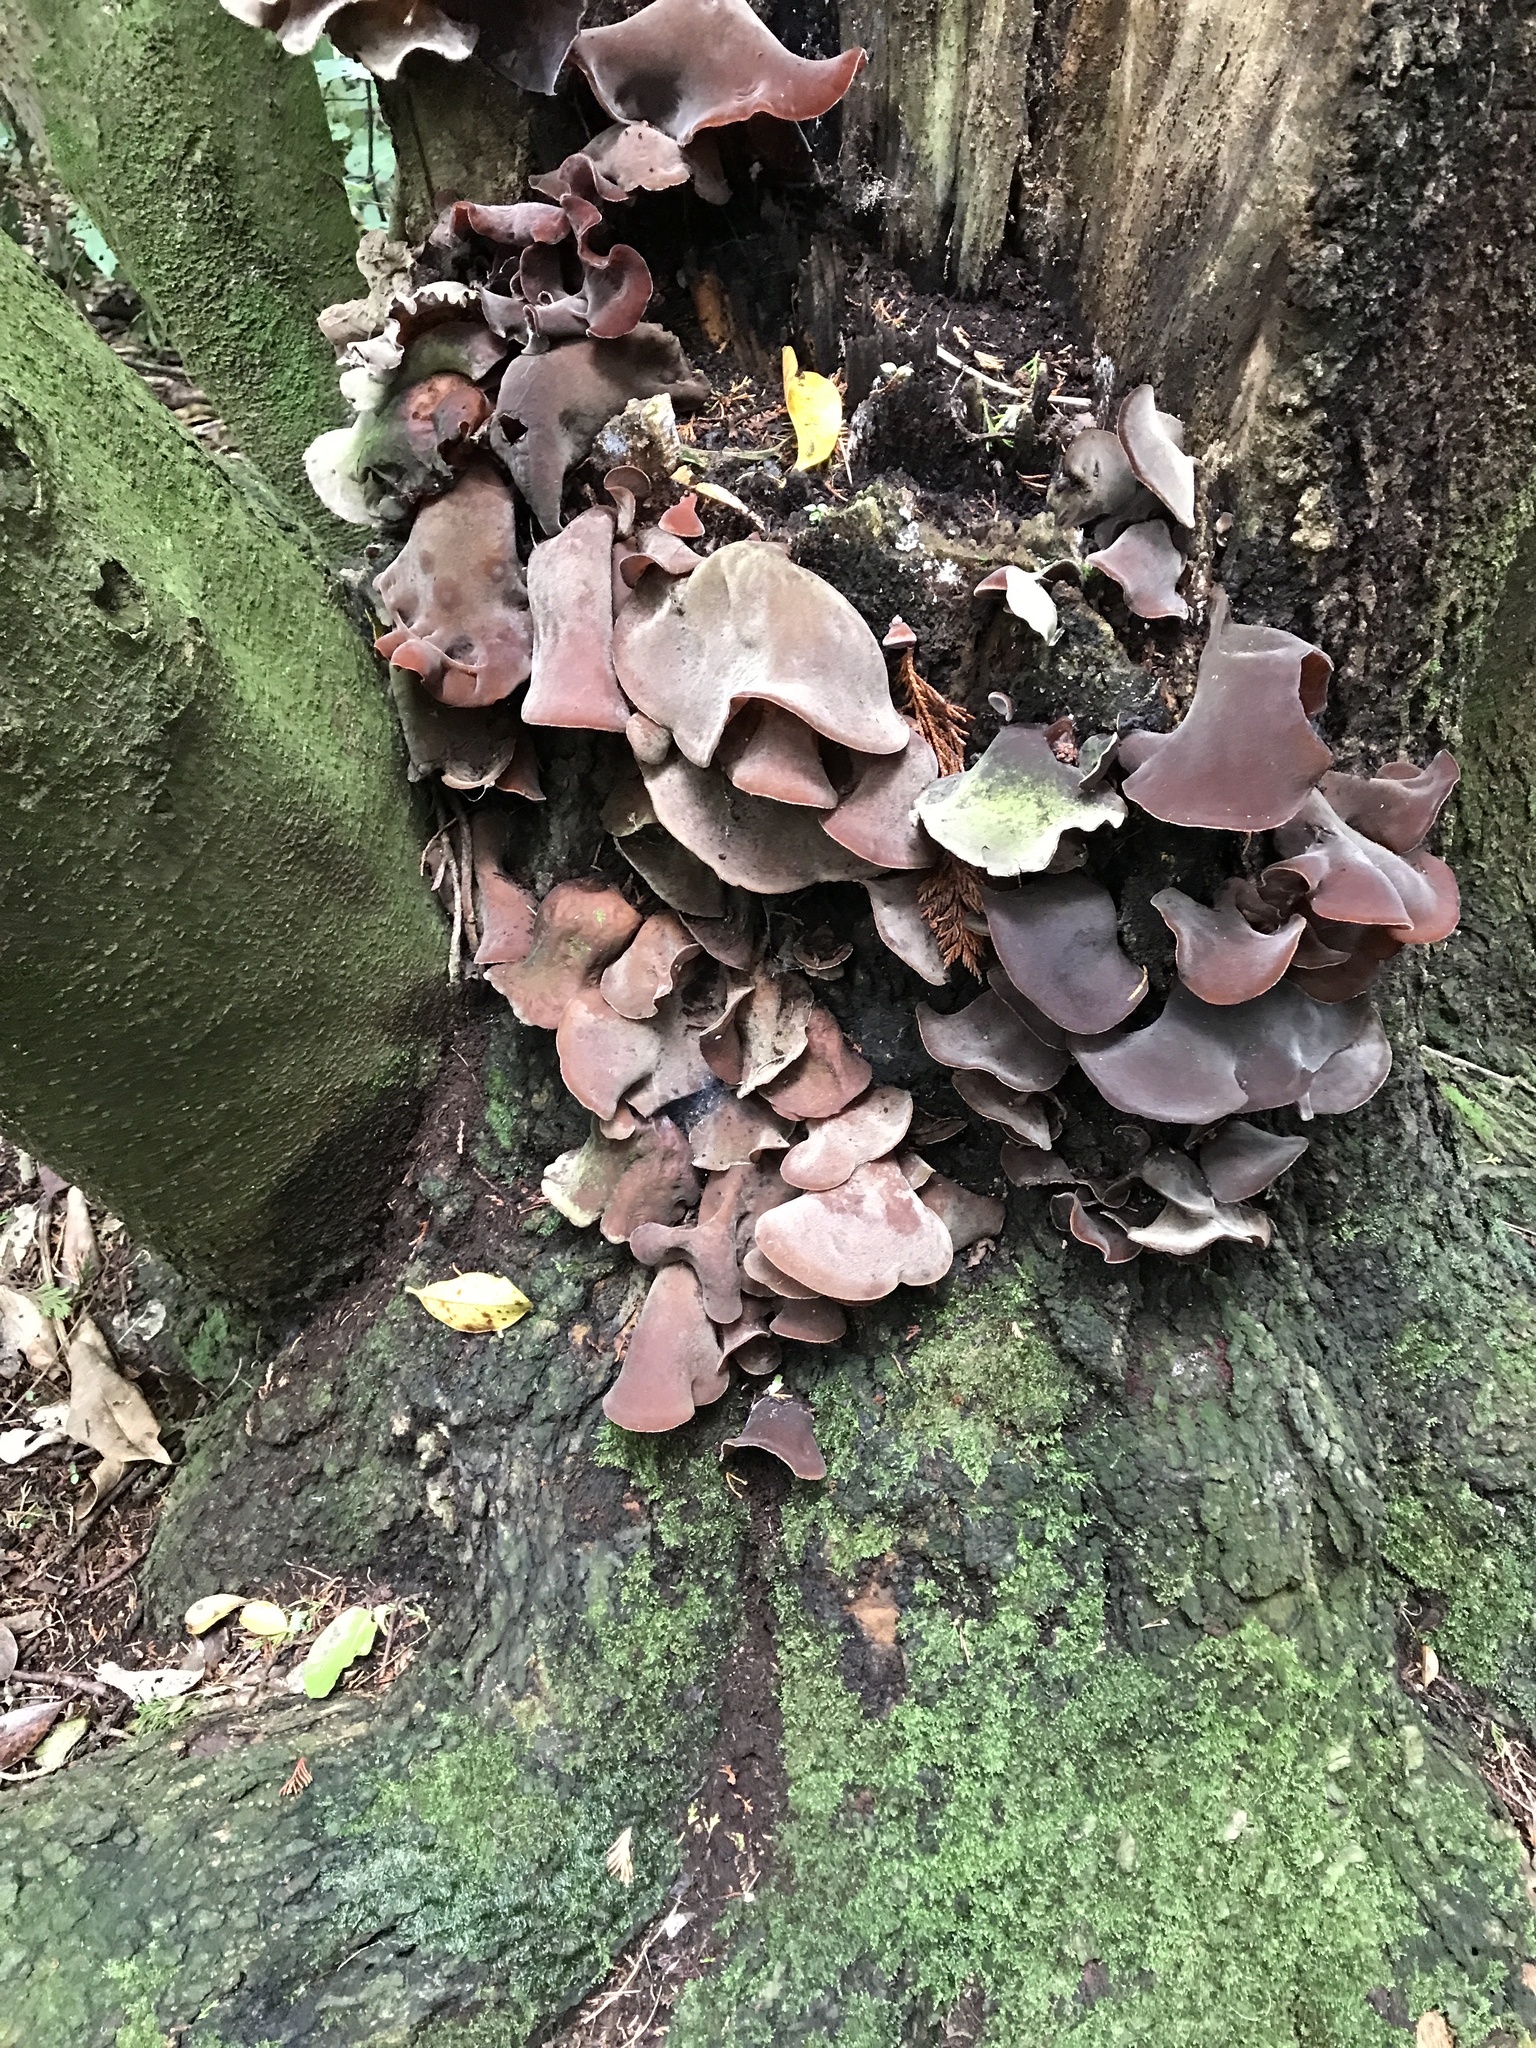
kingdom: Fungi
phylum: Basidiomycota
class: Agaricomycetes
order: Auriculariales
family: Auriculariaceae
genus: Auricularia
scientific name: Auricularia cornea
